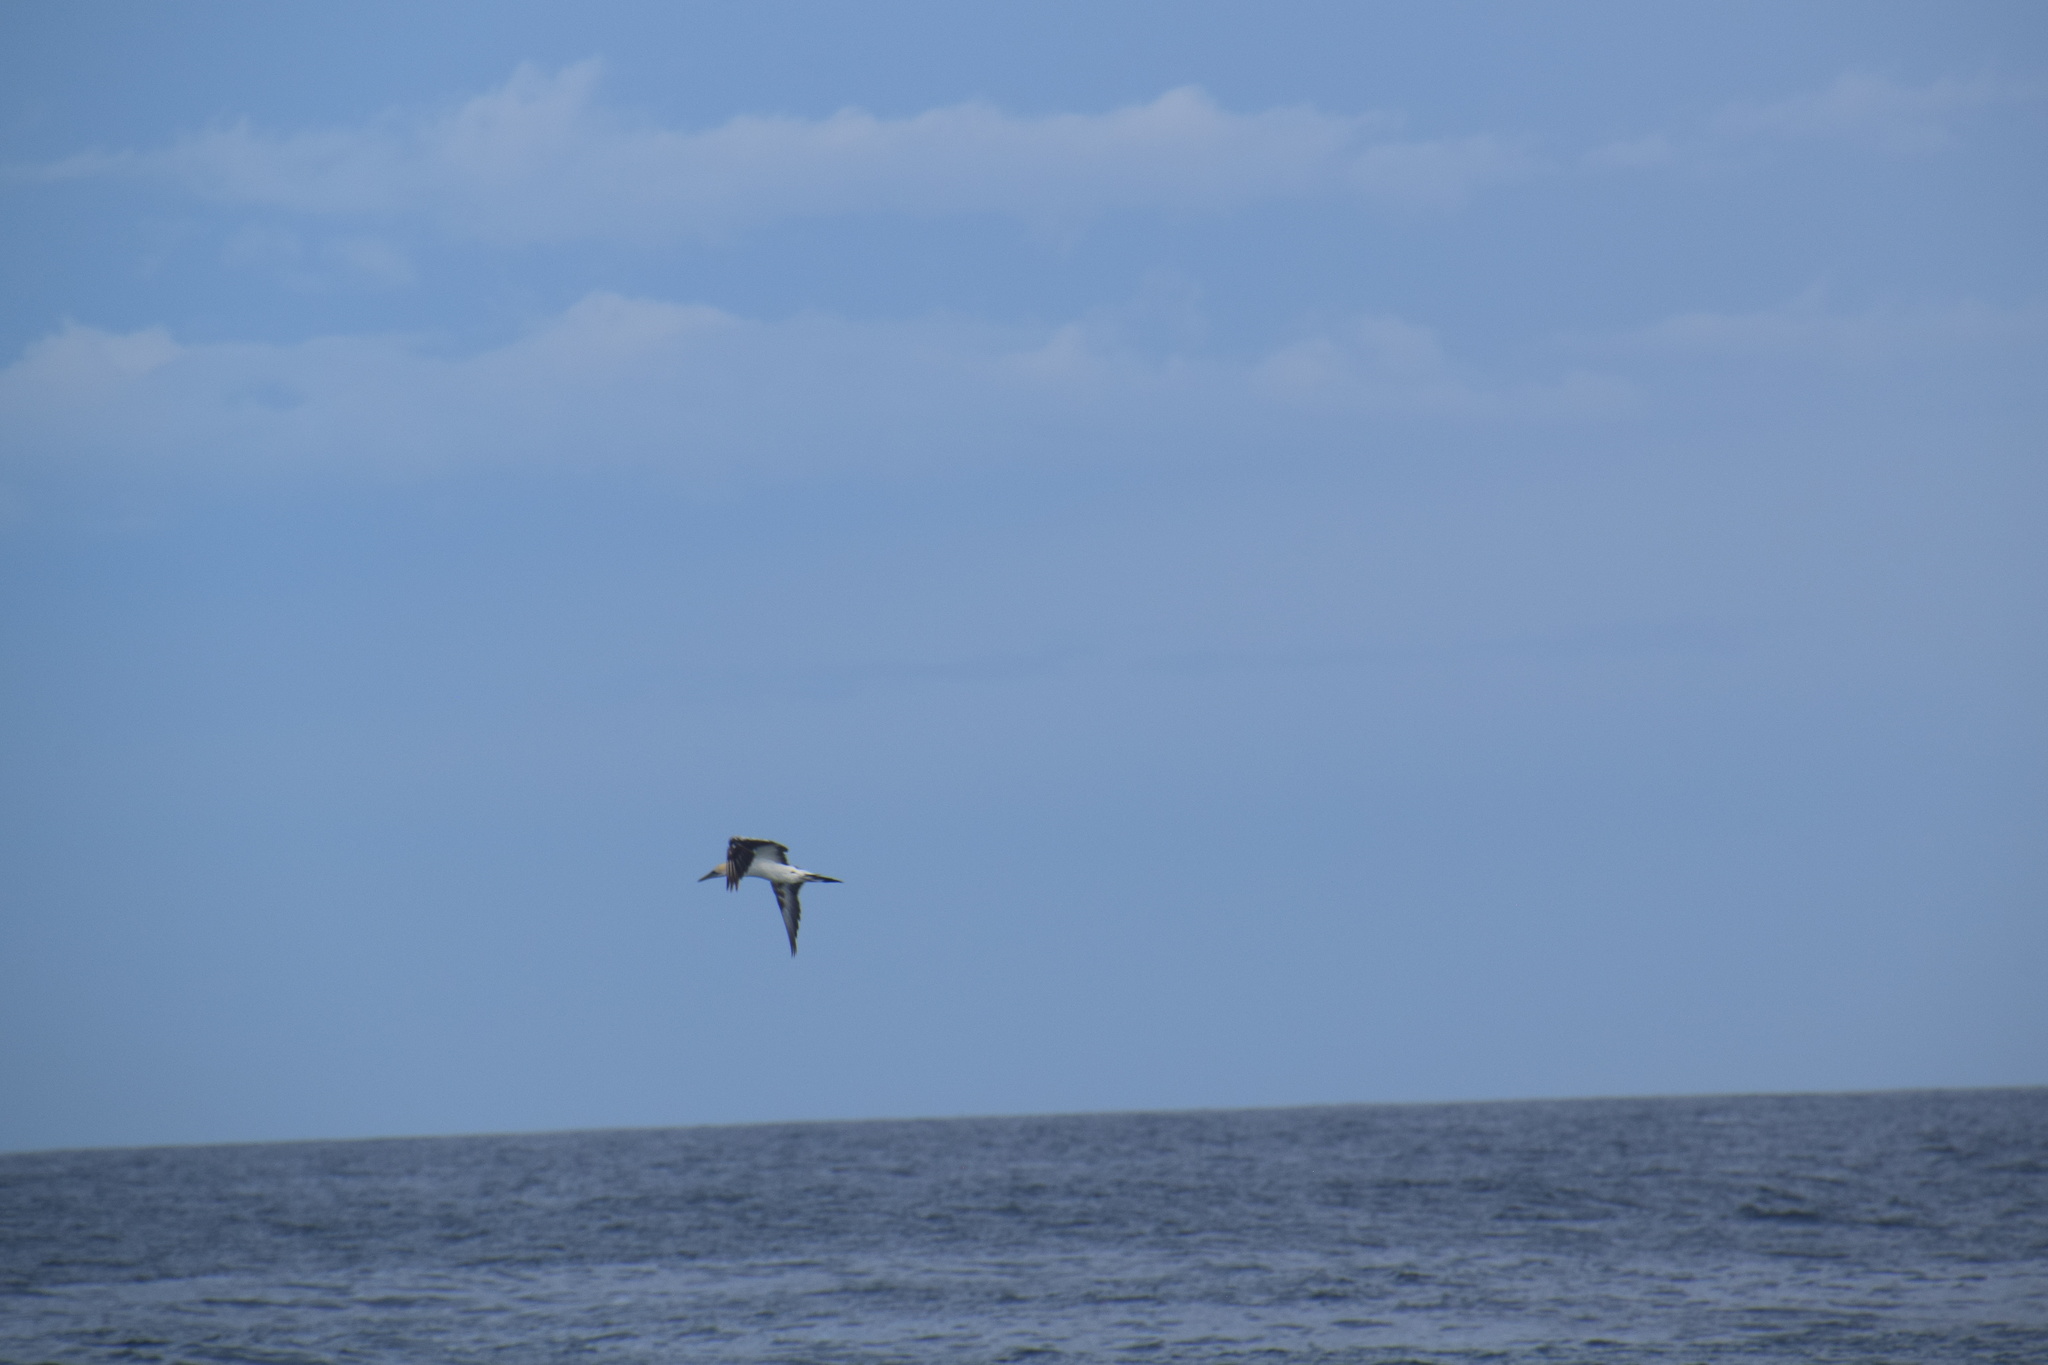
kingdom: Animalia
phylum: Chordata
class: Aves
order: Suliformes
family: Sulidae
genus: Morus
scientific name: Morus serrator
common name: Australasian gannet
